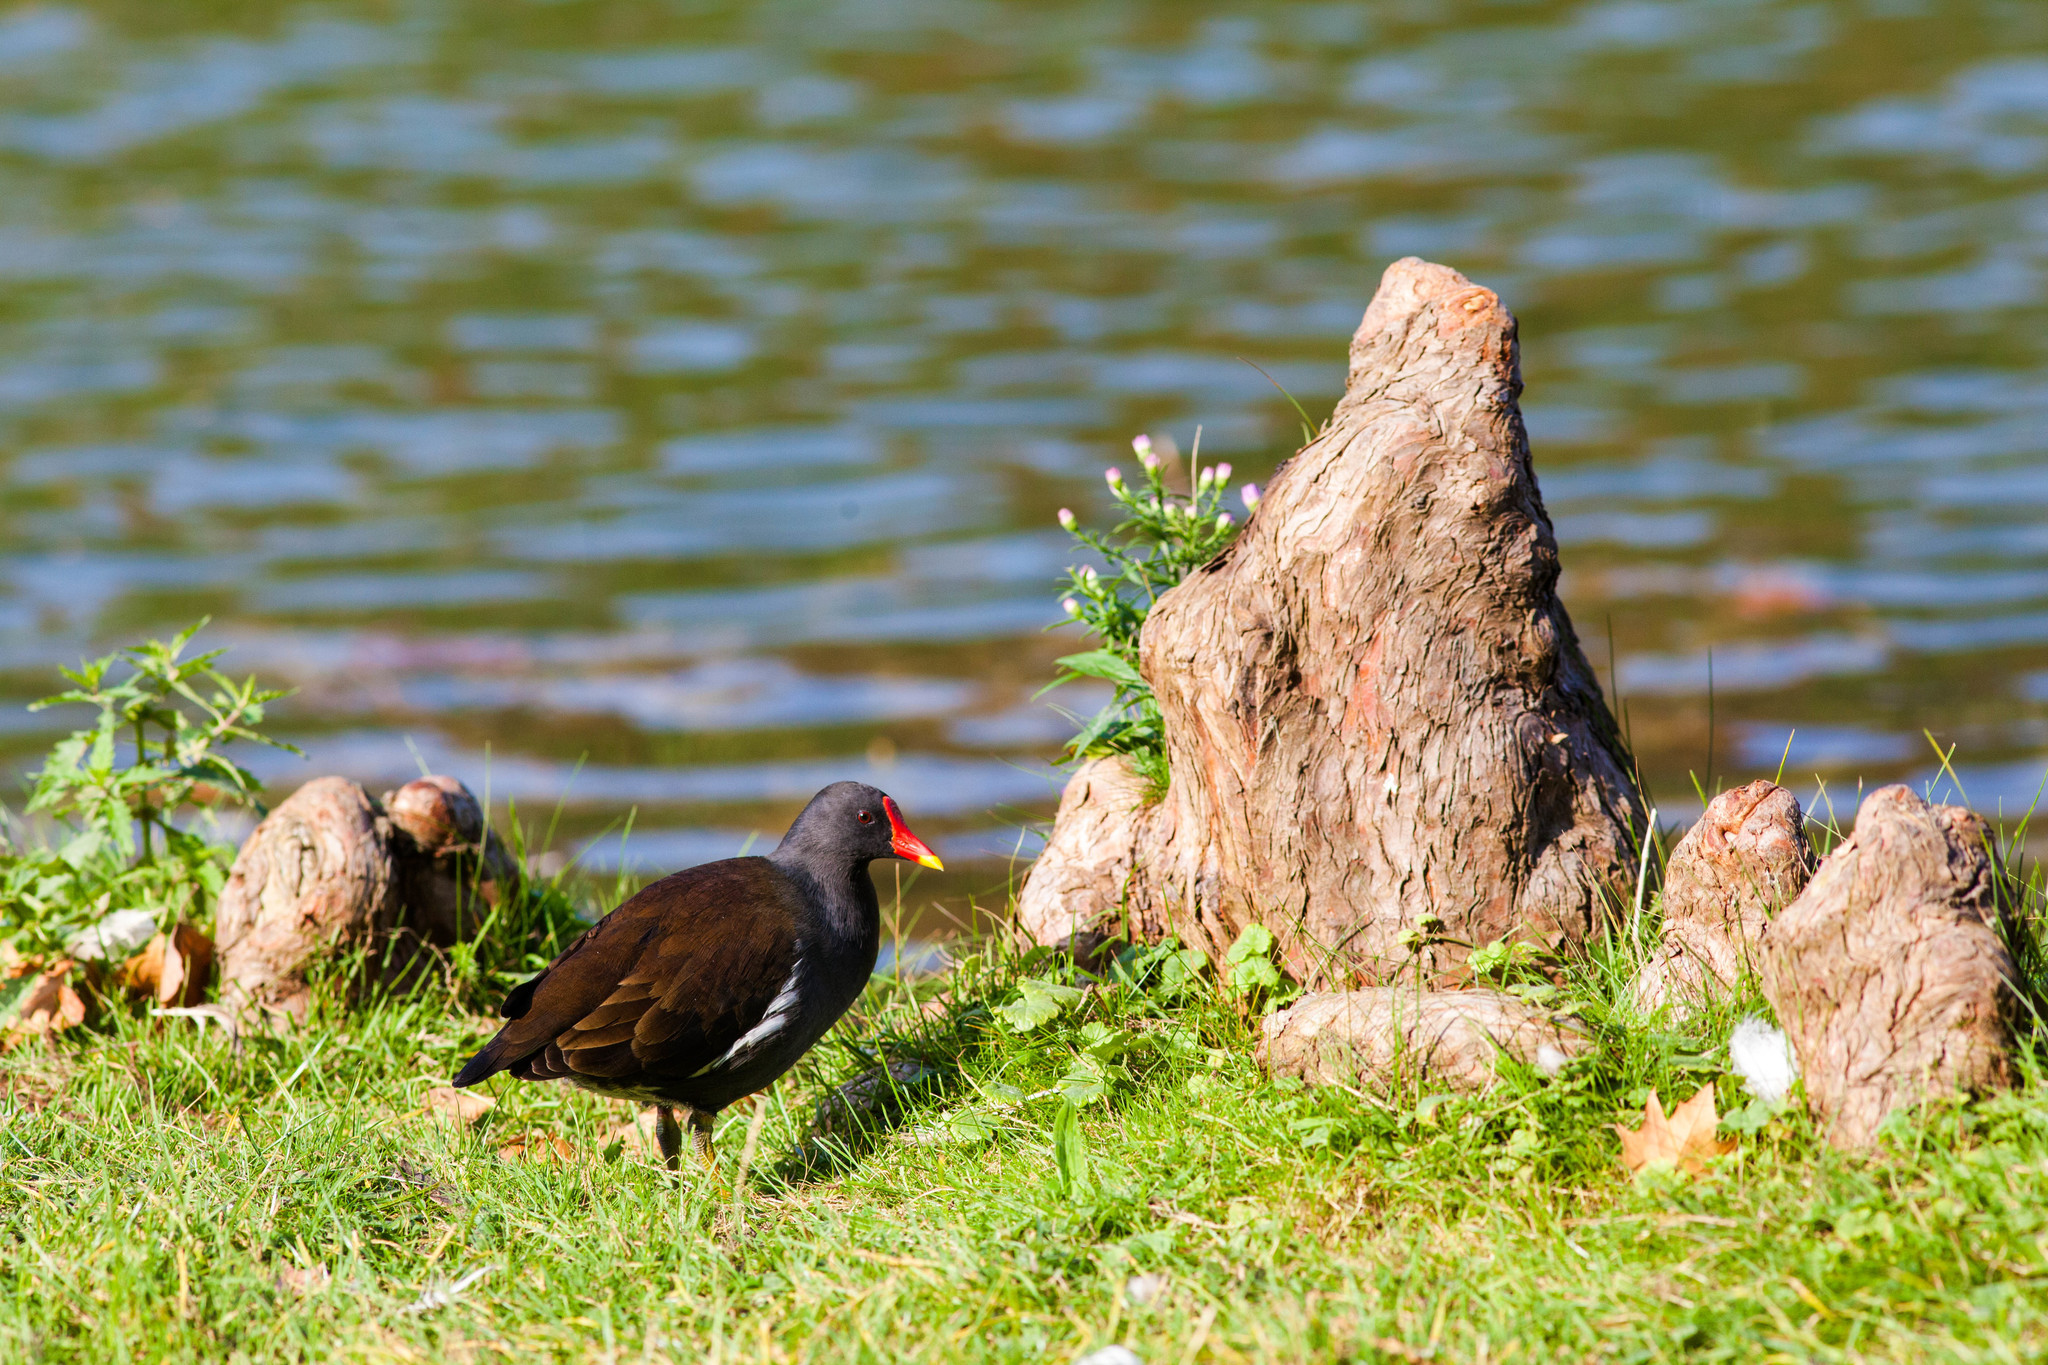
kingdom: Animalia
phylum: Chordata
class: Aves
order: Gruiformes
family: Rallidae
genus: Gallinula
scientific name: Gallinula chloropus
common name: Common moorhen
